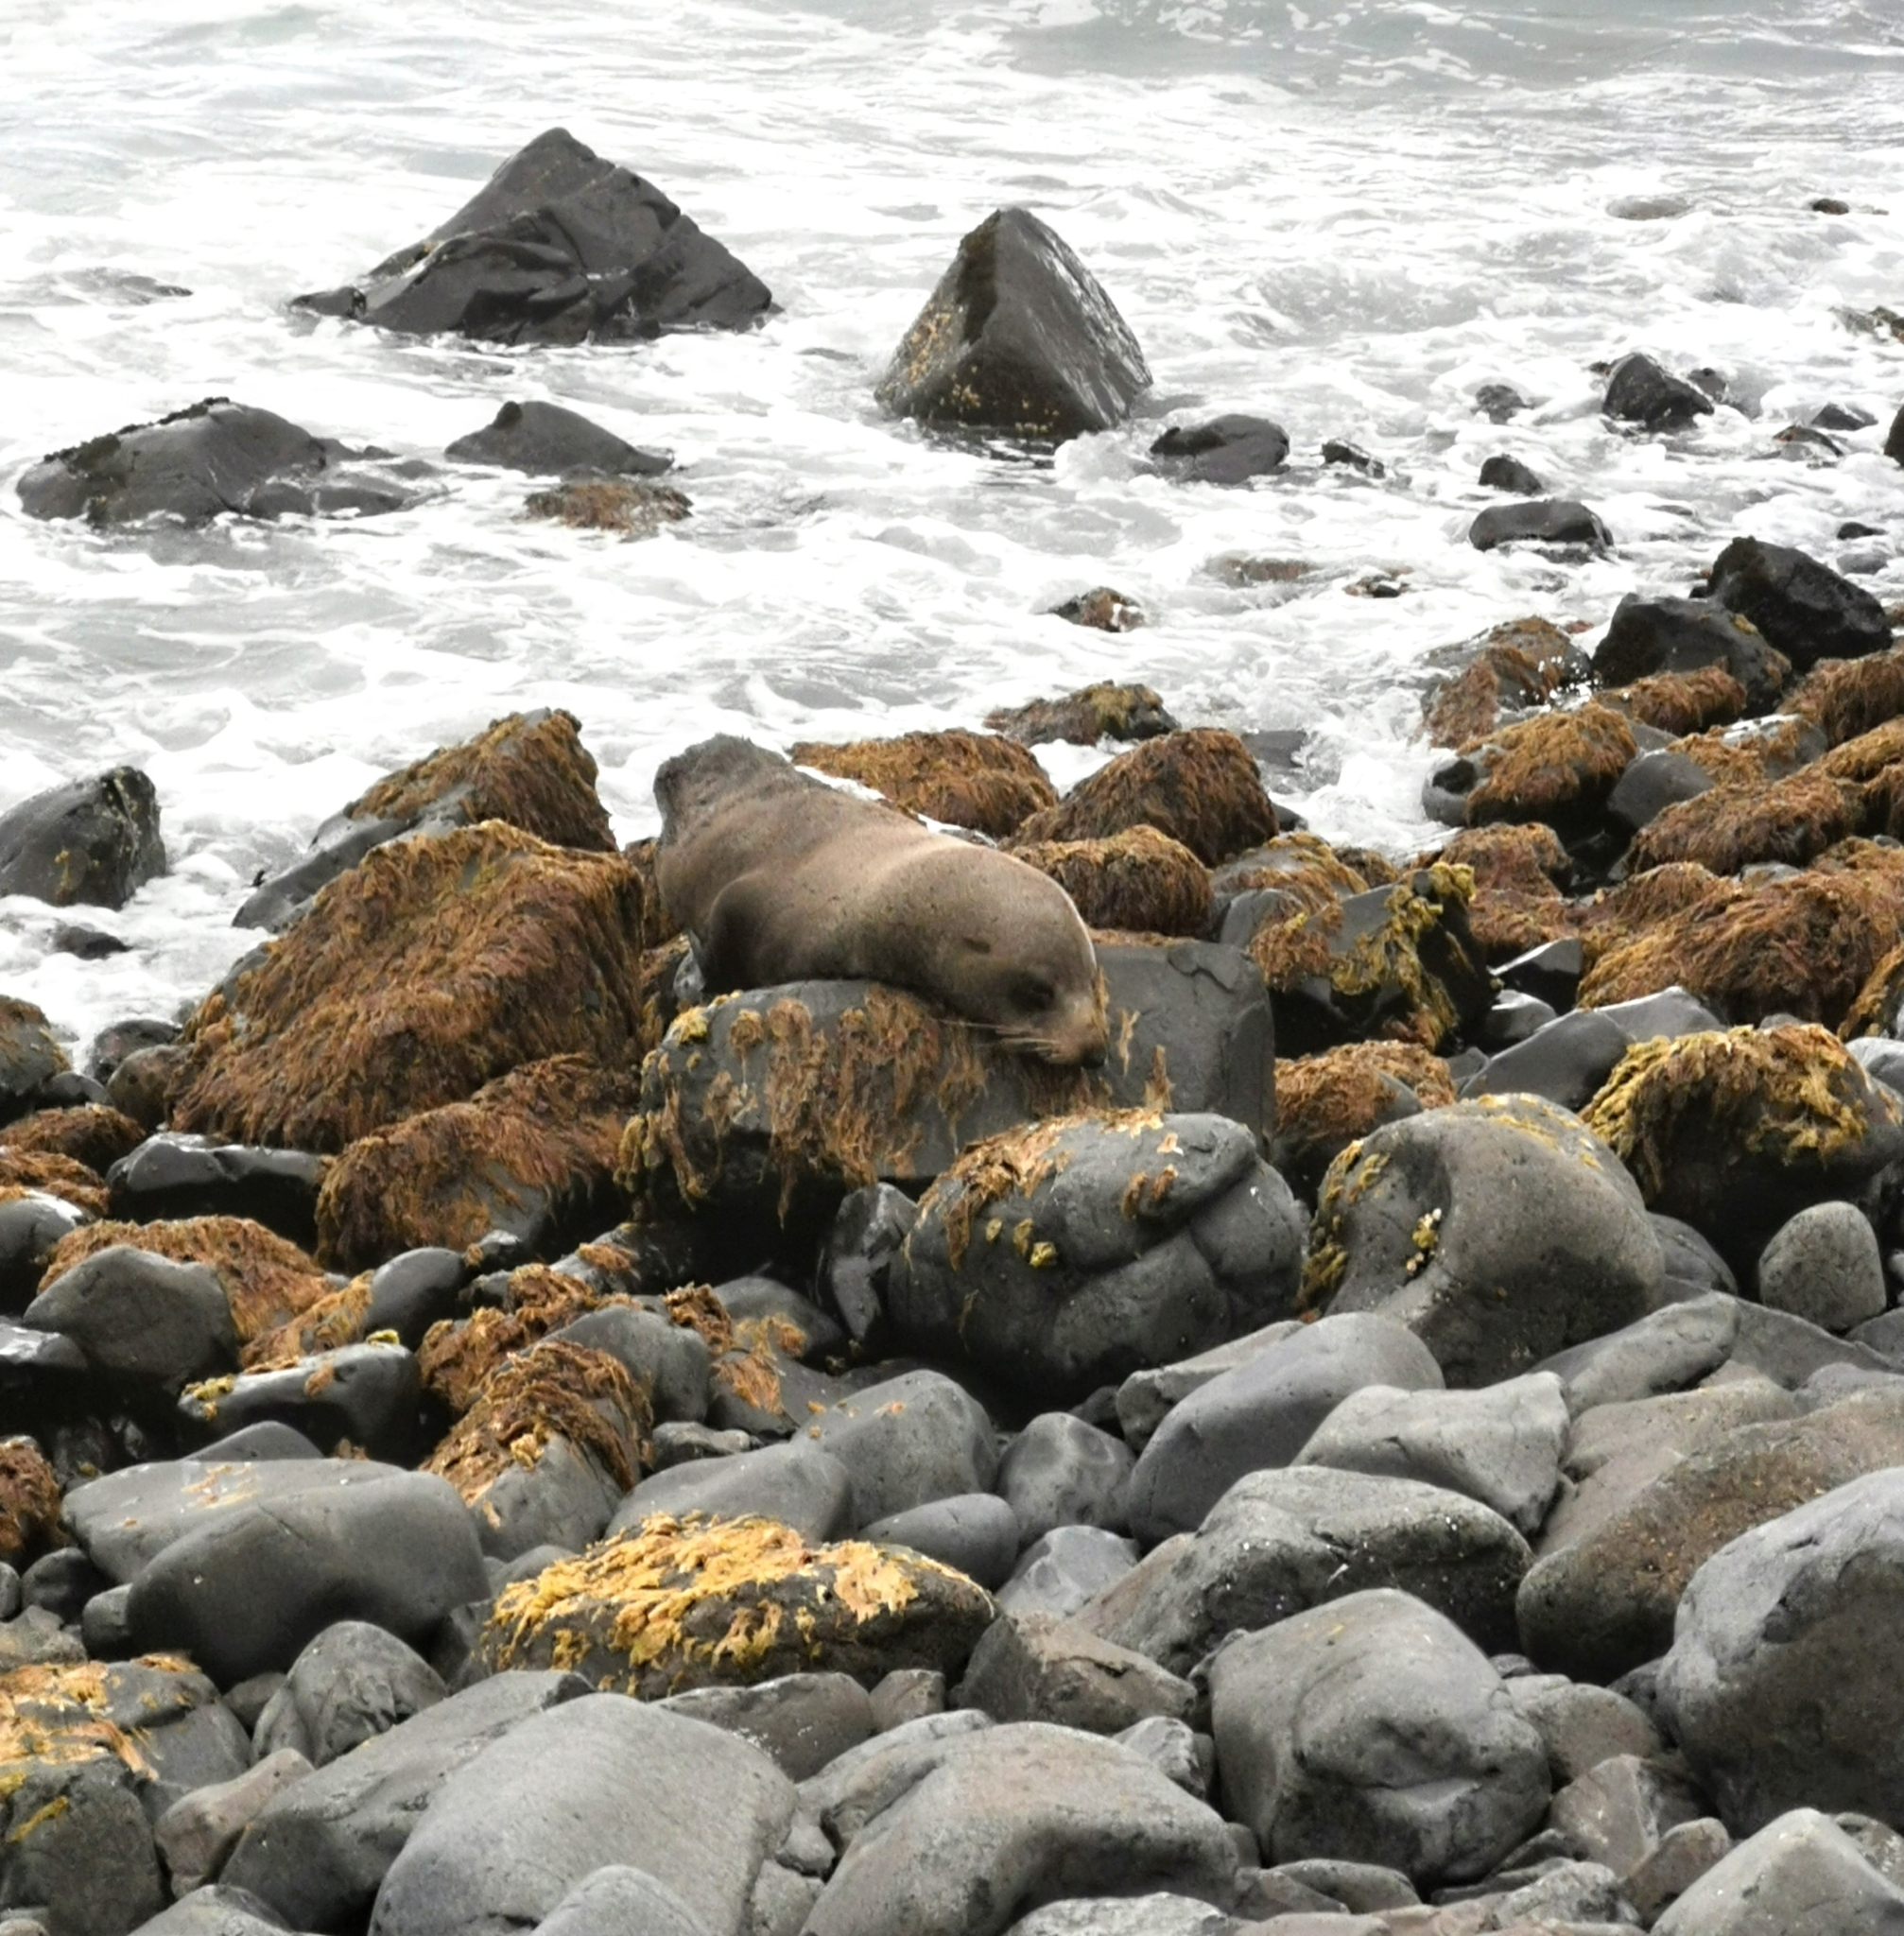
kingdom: Animalia
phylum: Chordata
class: Mammalia
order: Carnivora
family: Otariidae
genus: Arctocephalus
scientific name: Arctocephalus forsteri
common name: New zealand fur seal
